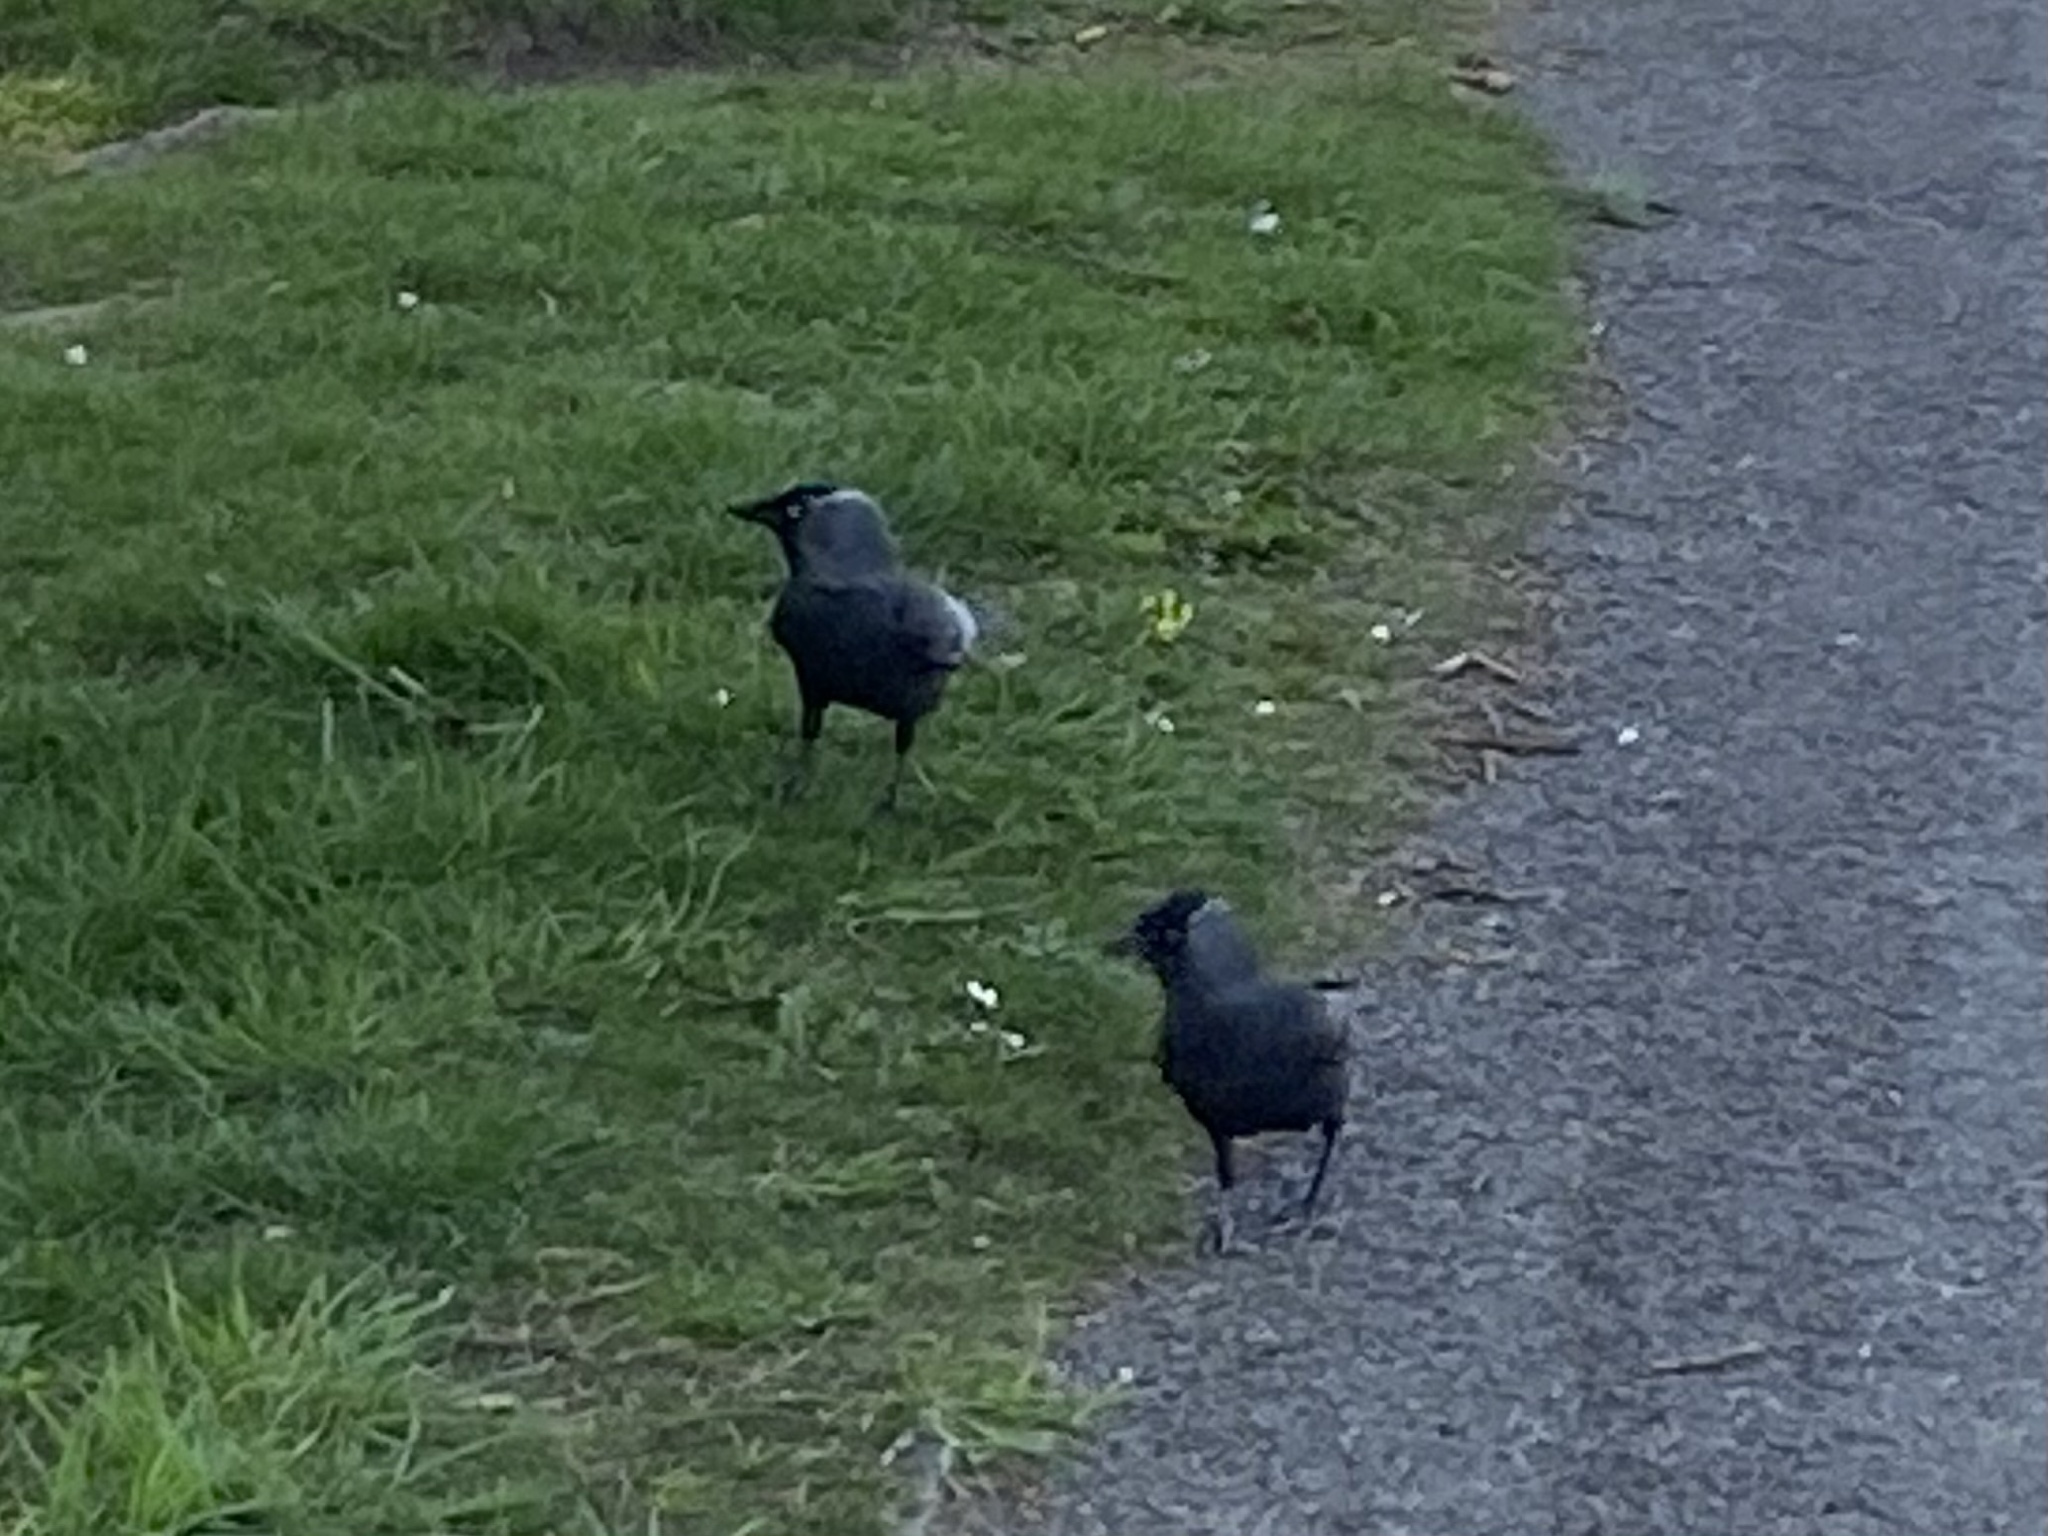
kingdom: Animalia
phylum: Chordata
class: Aves
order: Passeriformes
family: Corvidae
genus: Coloeus
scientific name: Coloeus monedula
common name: Western jackdaw
